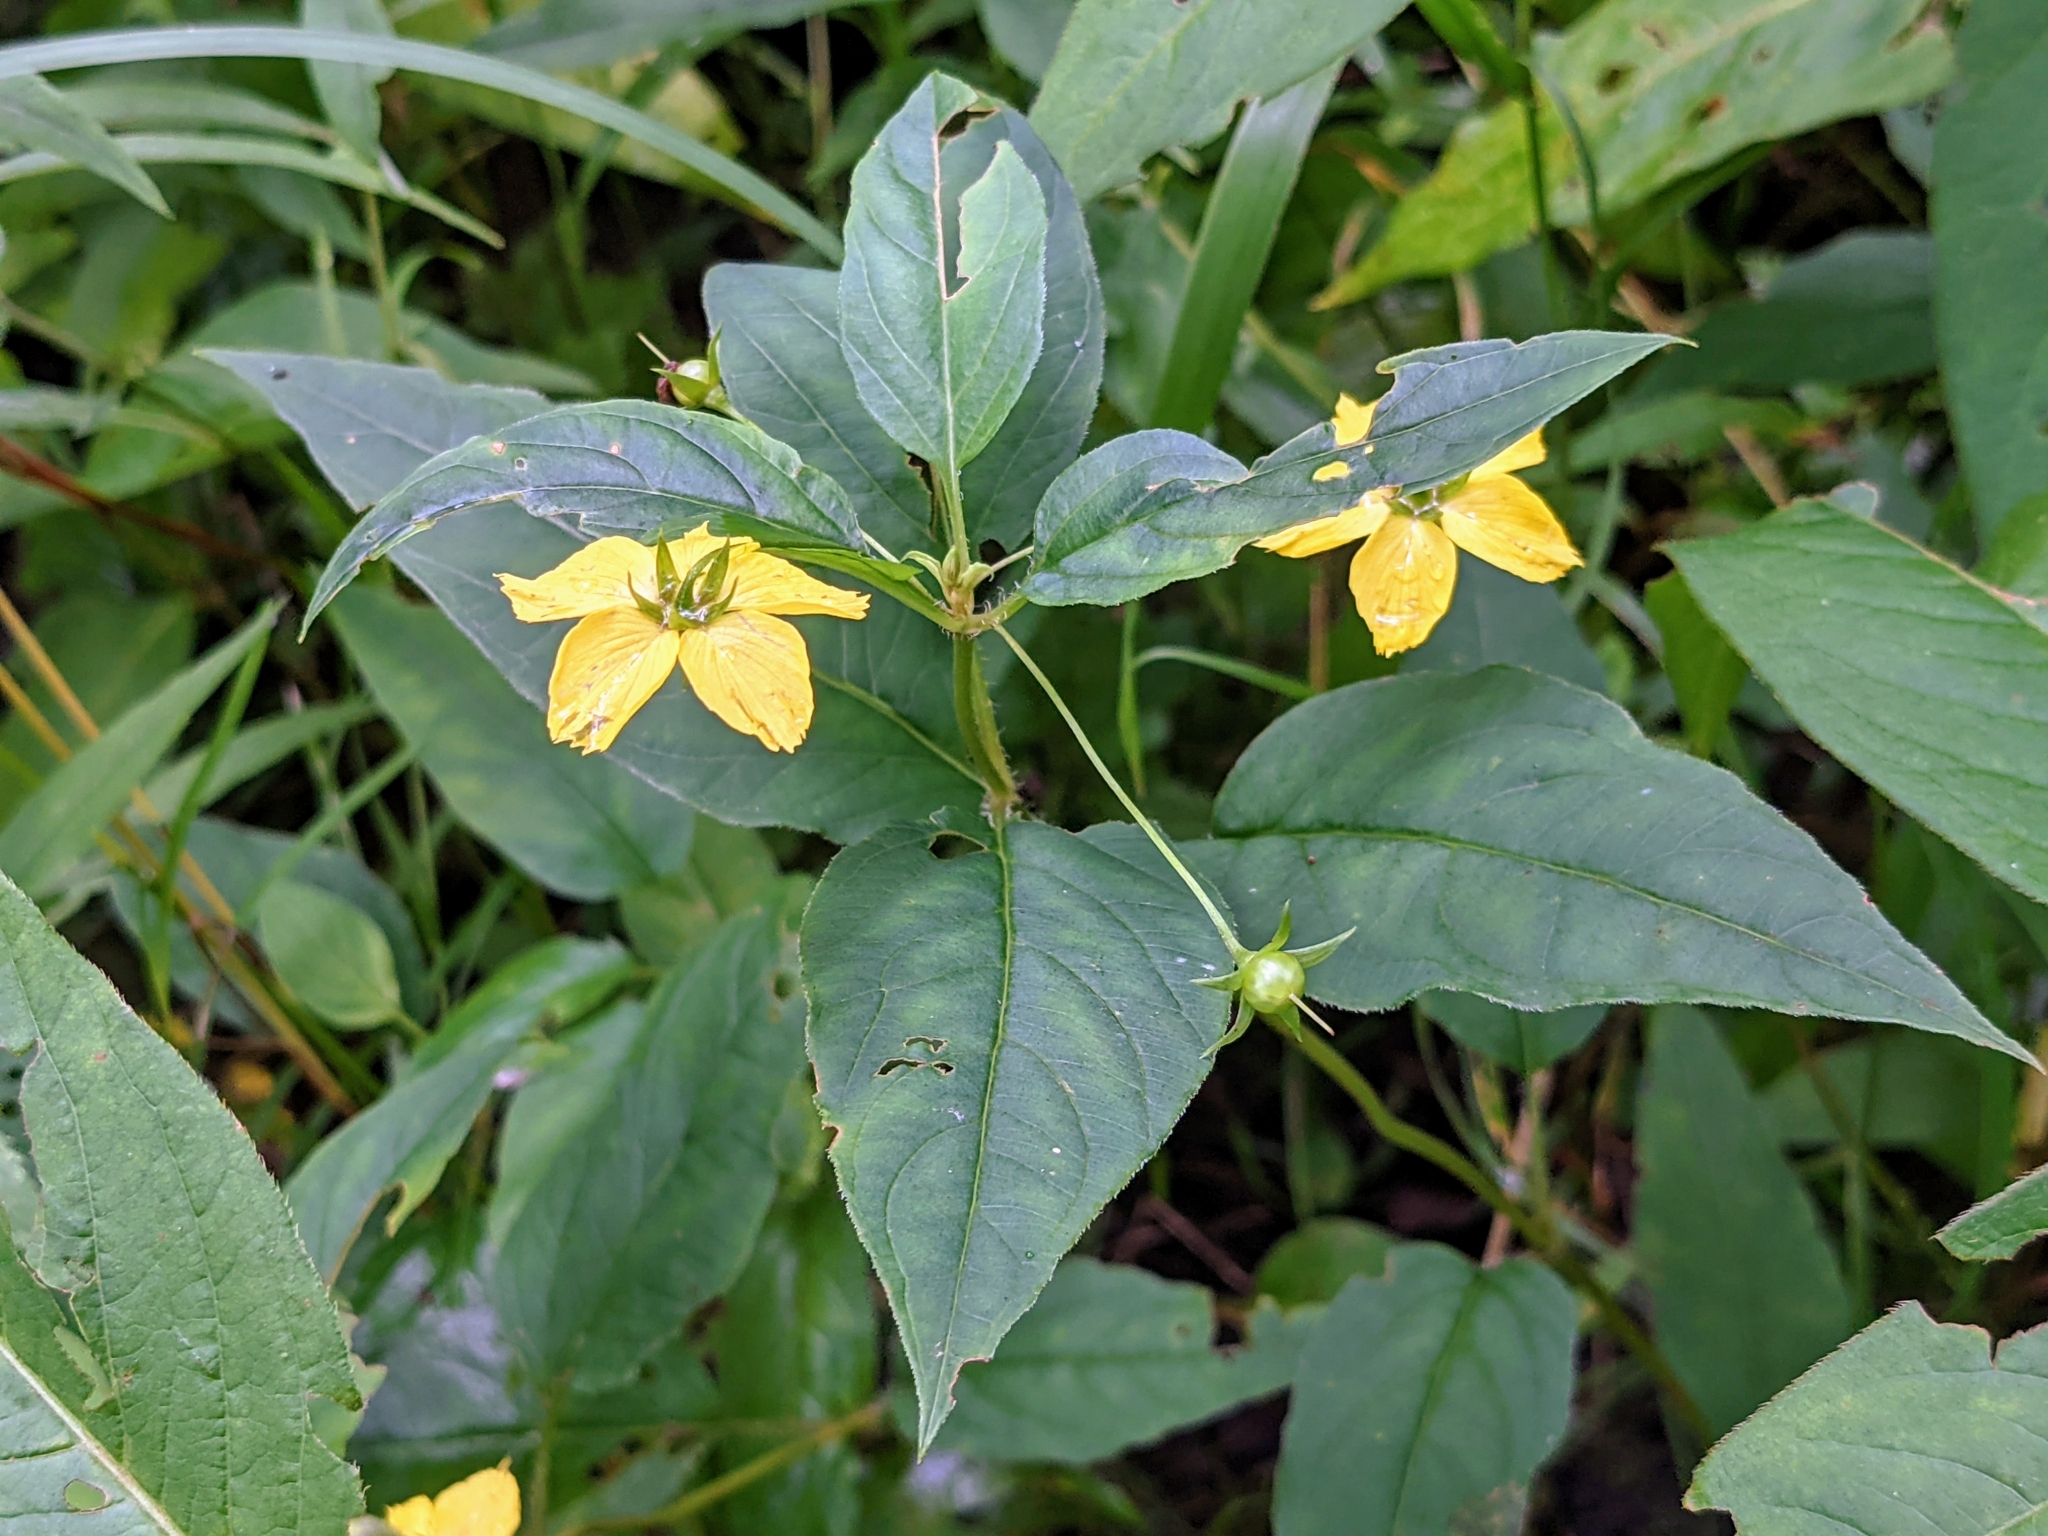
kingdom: Plantae
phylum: Tracheophyta
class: Magnoliopsida
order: Ericales
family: Primulaceae
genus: Lysimachia
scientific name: Lysimachia ciliata
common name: Fringed loosestrife
